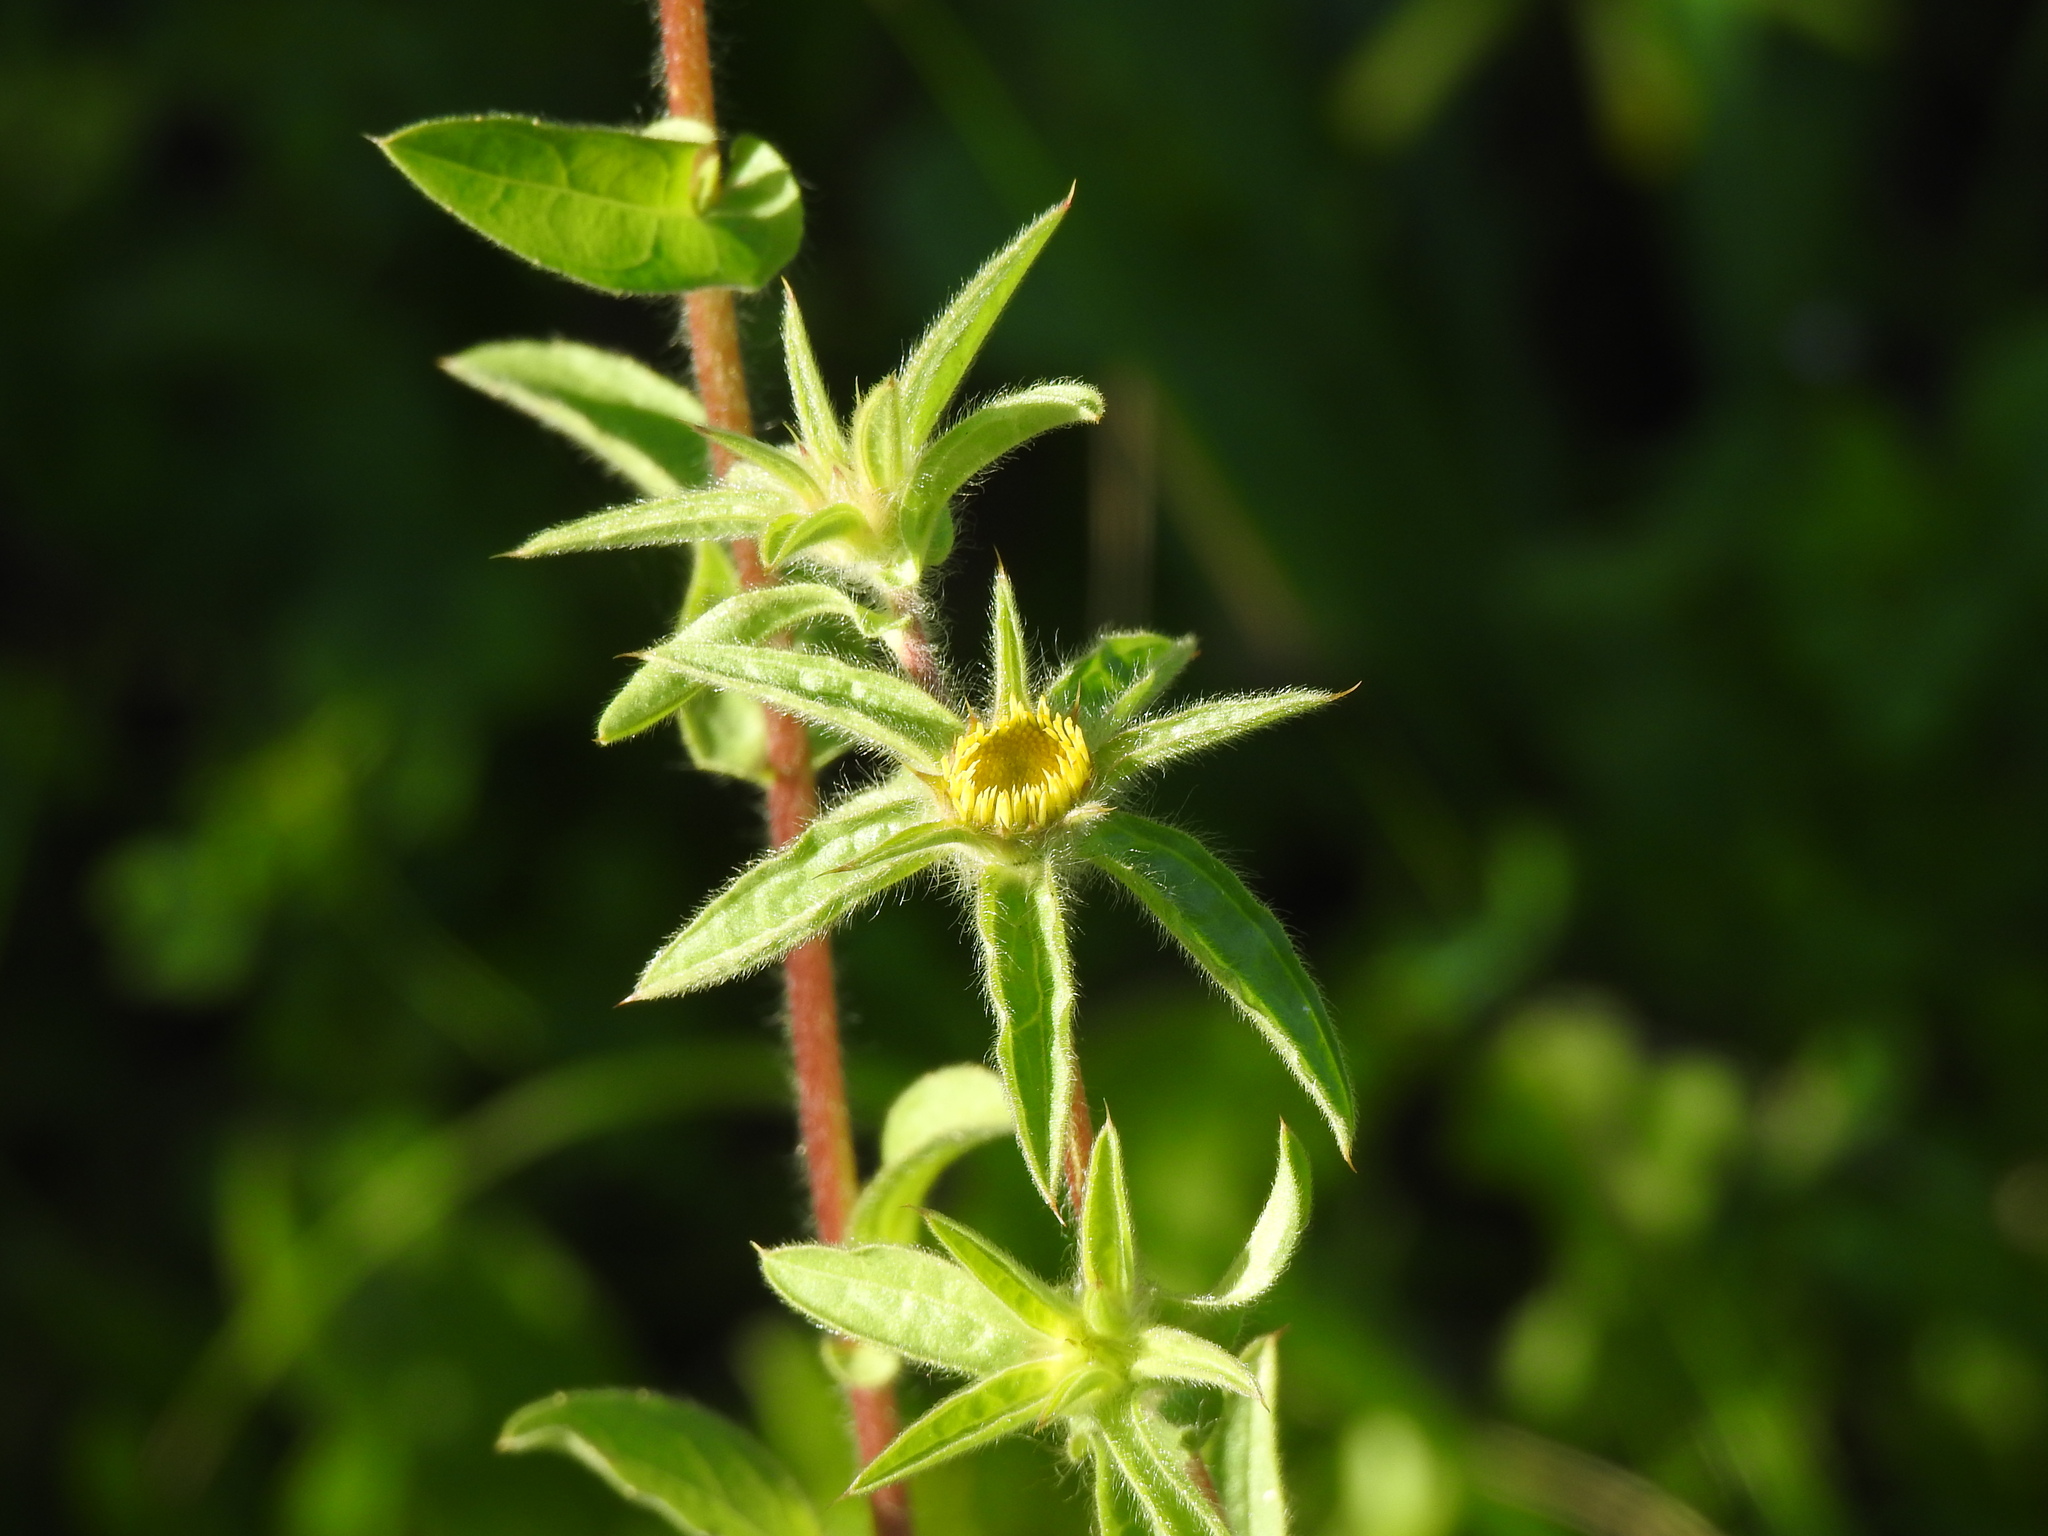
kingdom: Plantae
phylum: Tracheophyta
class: Magnoliopsida
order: Asterales
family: Asteraceae
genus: Pallenis
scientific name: Pallenis spinosa
